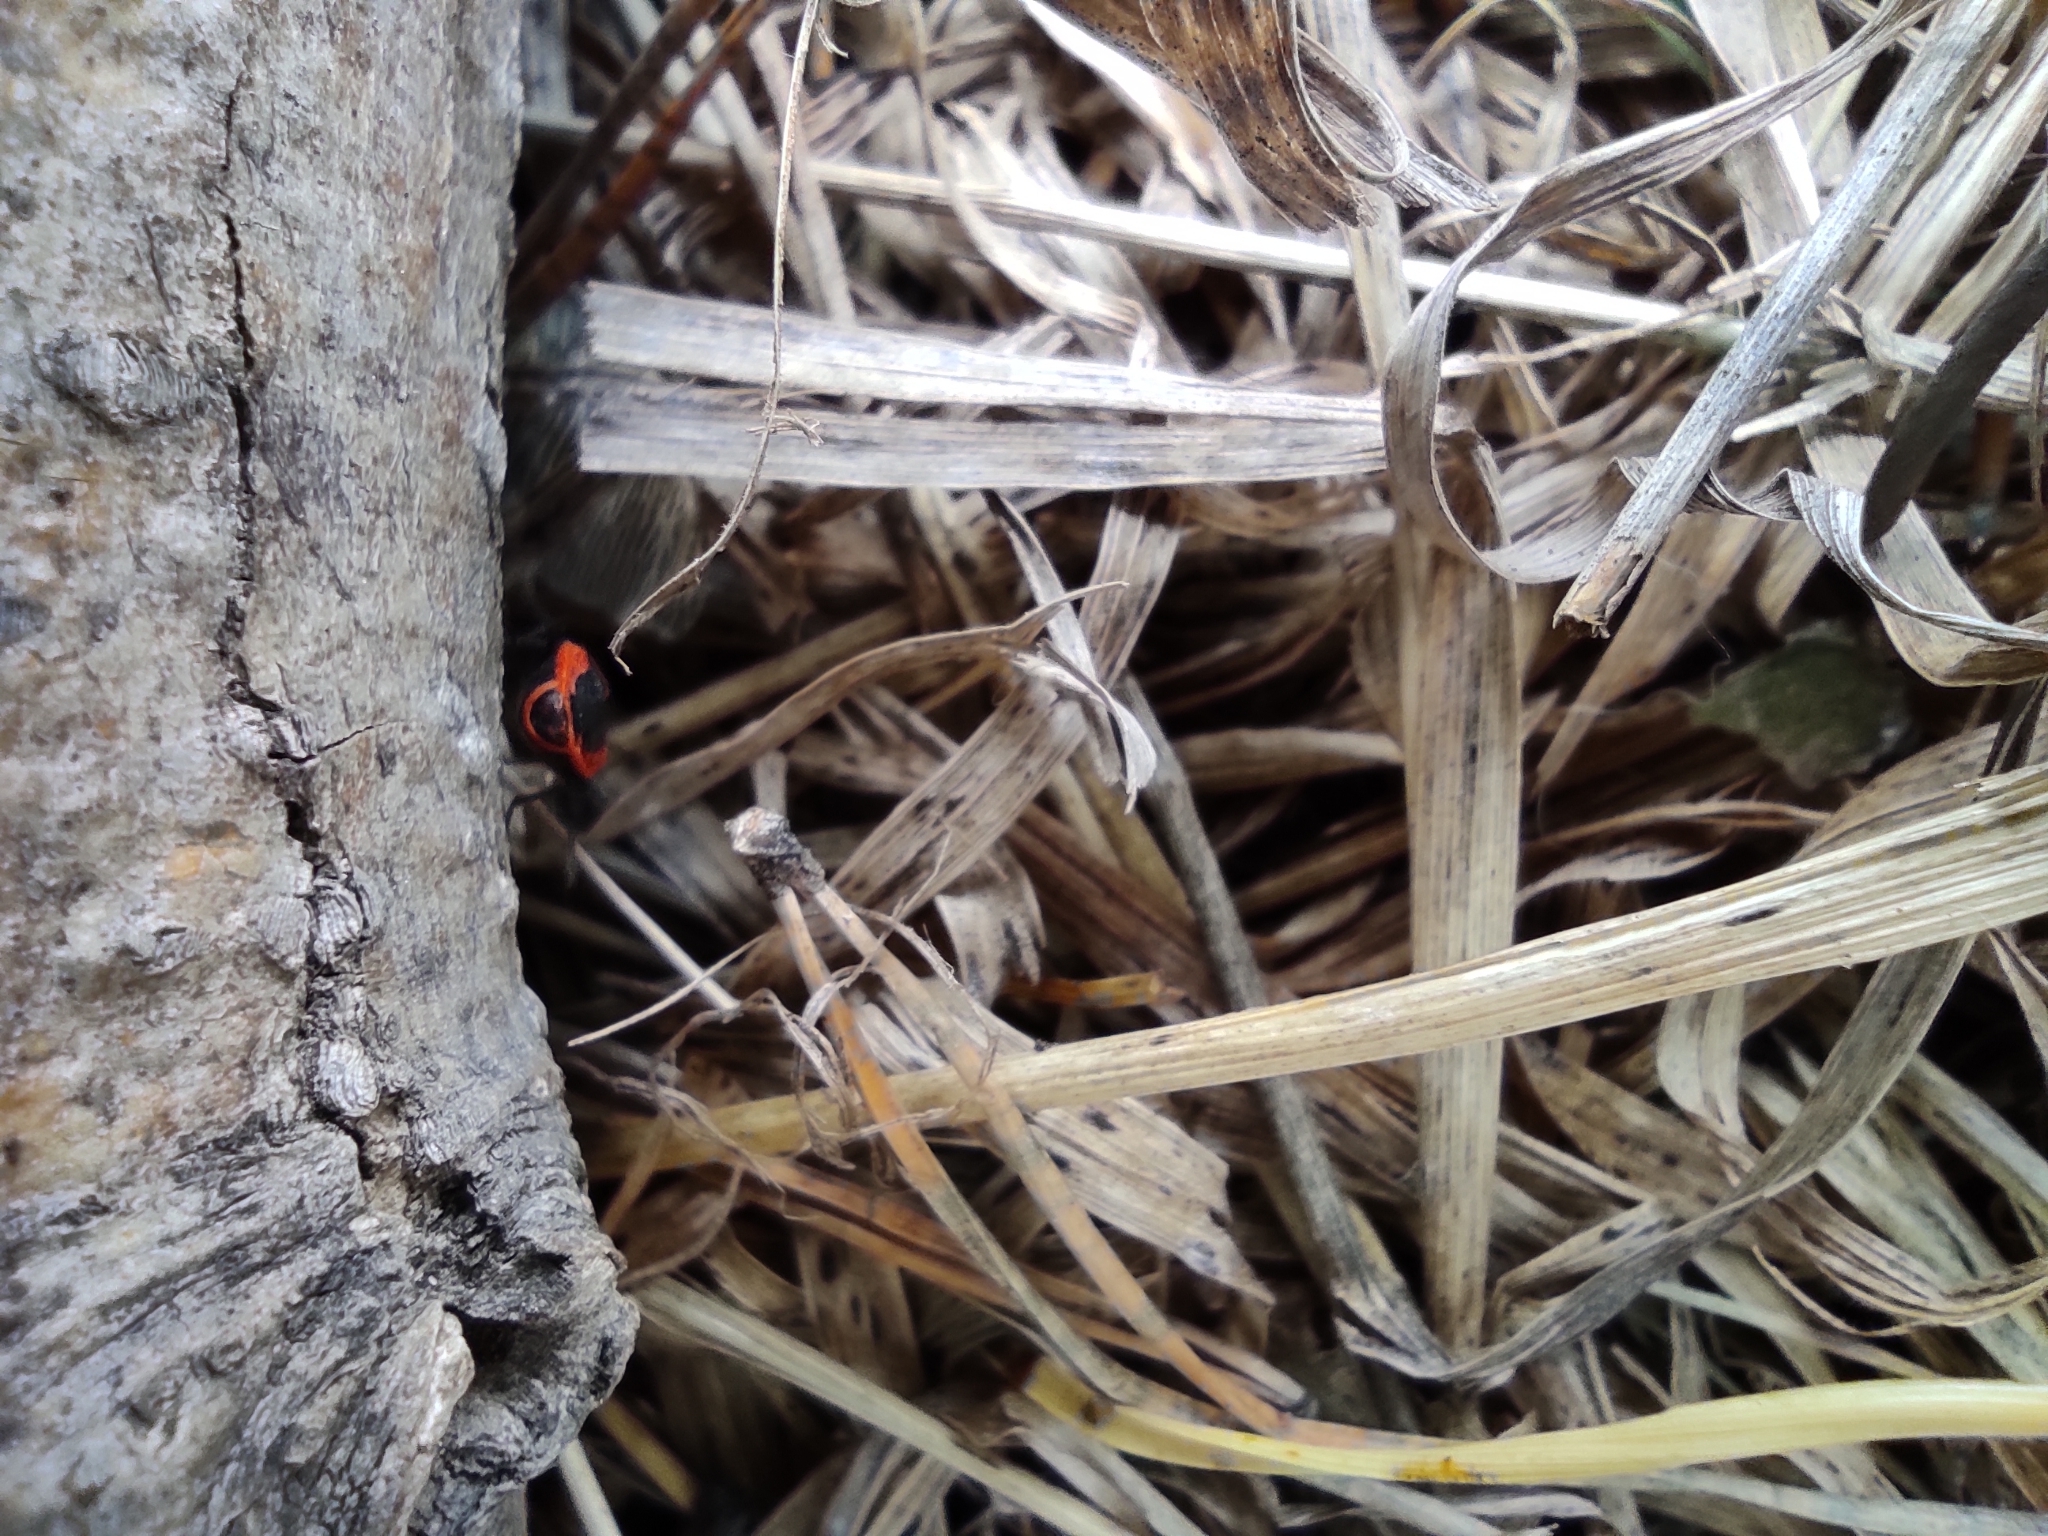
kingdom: Animalia
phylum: Arthropoda
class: Insecta
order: Hemiptera
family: Pyrrhocoridae
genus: Pyrrhocoris
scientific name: Pyrrhocoris apterus
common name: Firebug
